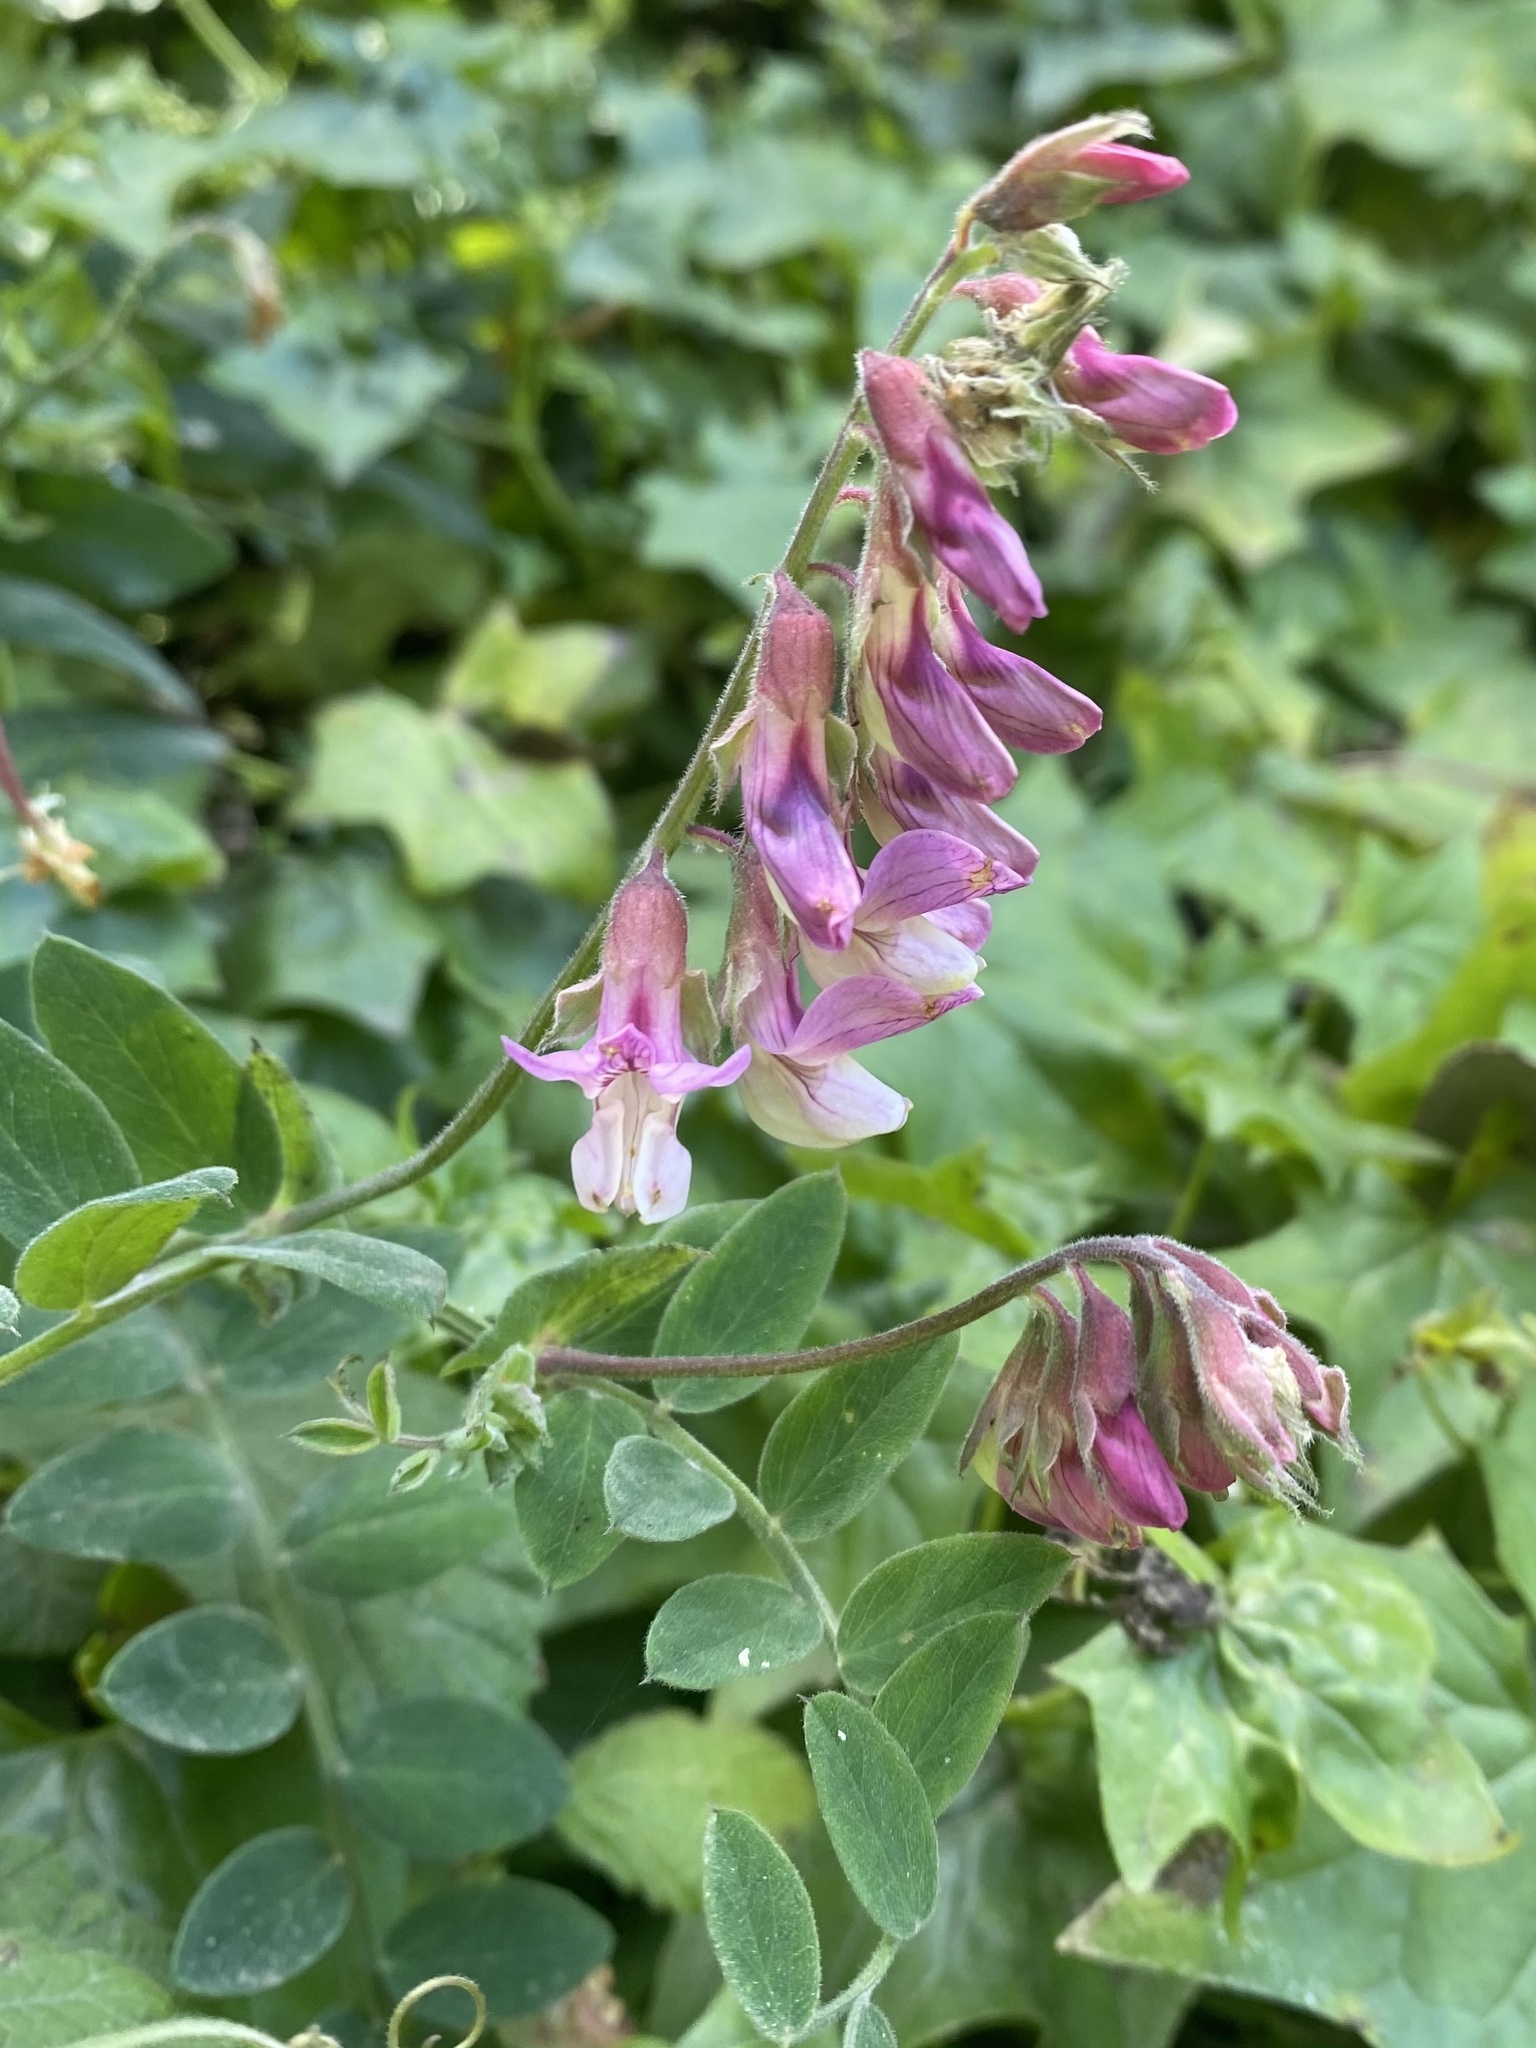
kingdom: Plantae
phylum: Tracheophyta
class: Magnoliopsida
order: Fabales
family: Fabaceae
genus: Lathyrus
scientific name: Lathyrus vestitus
